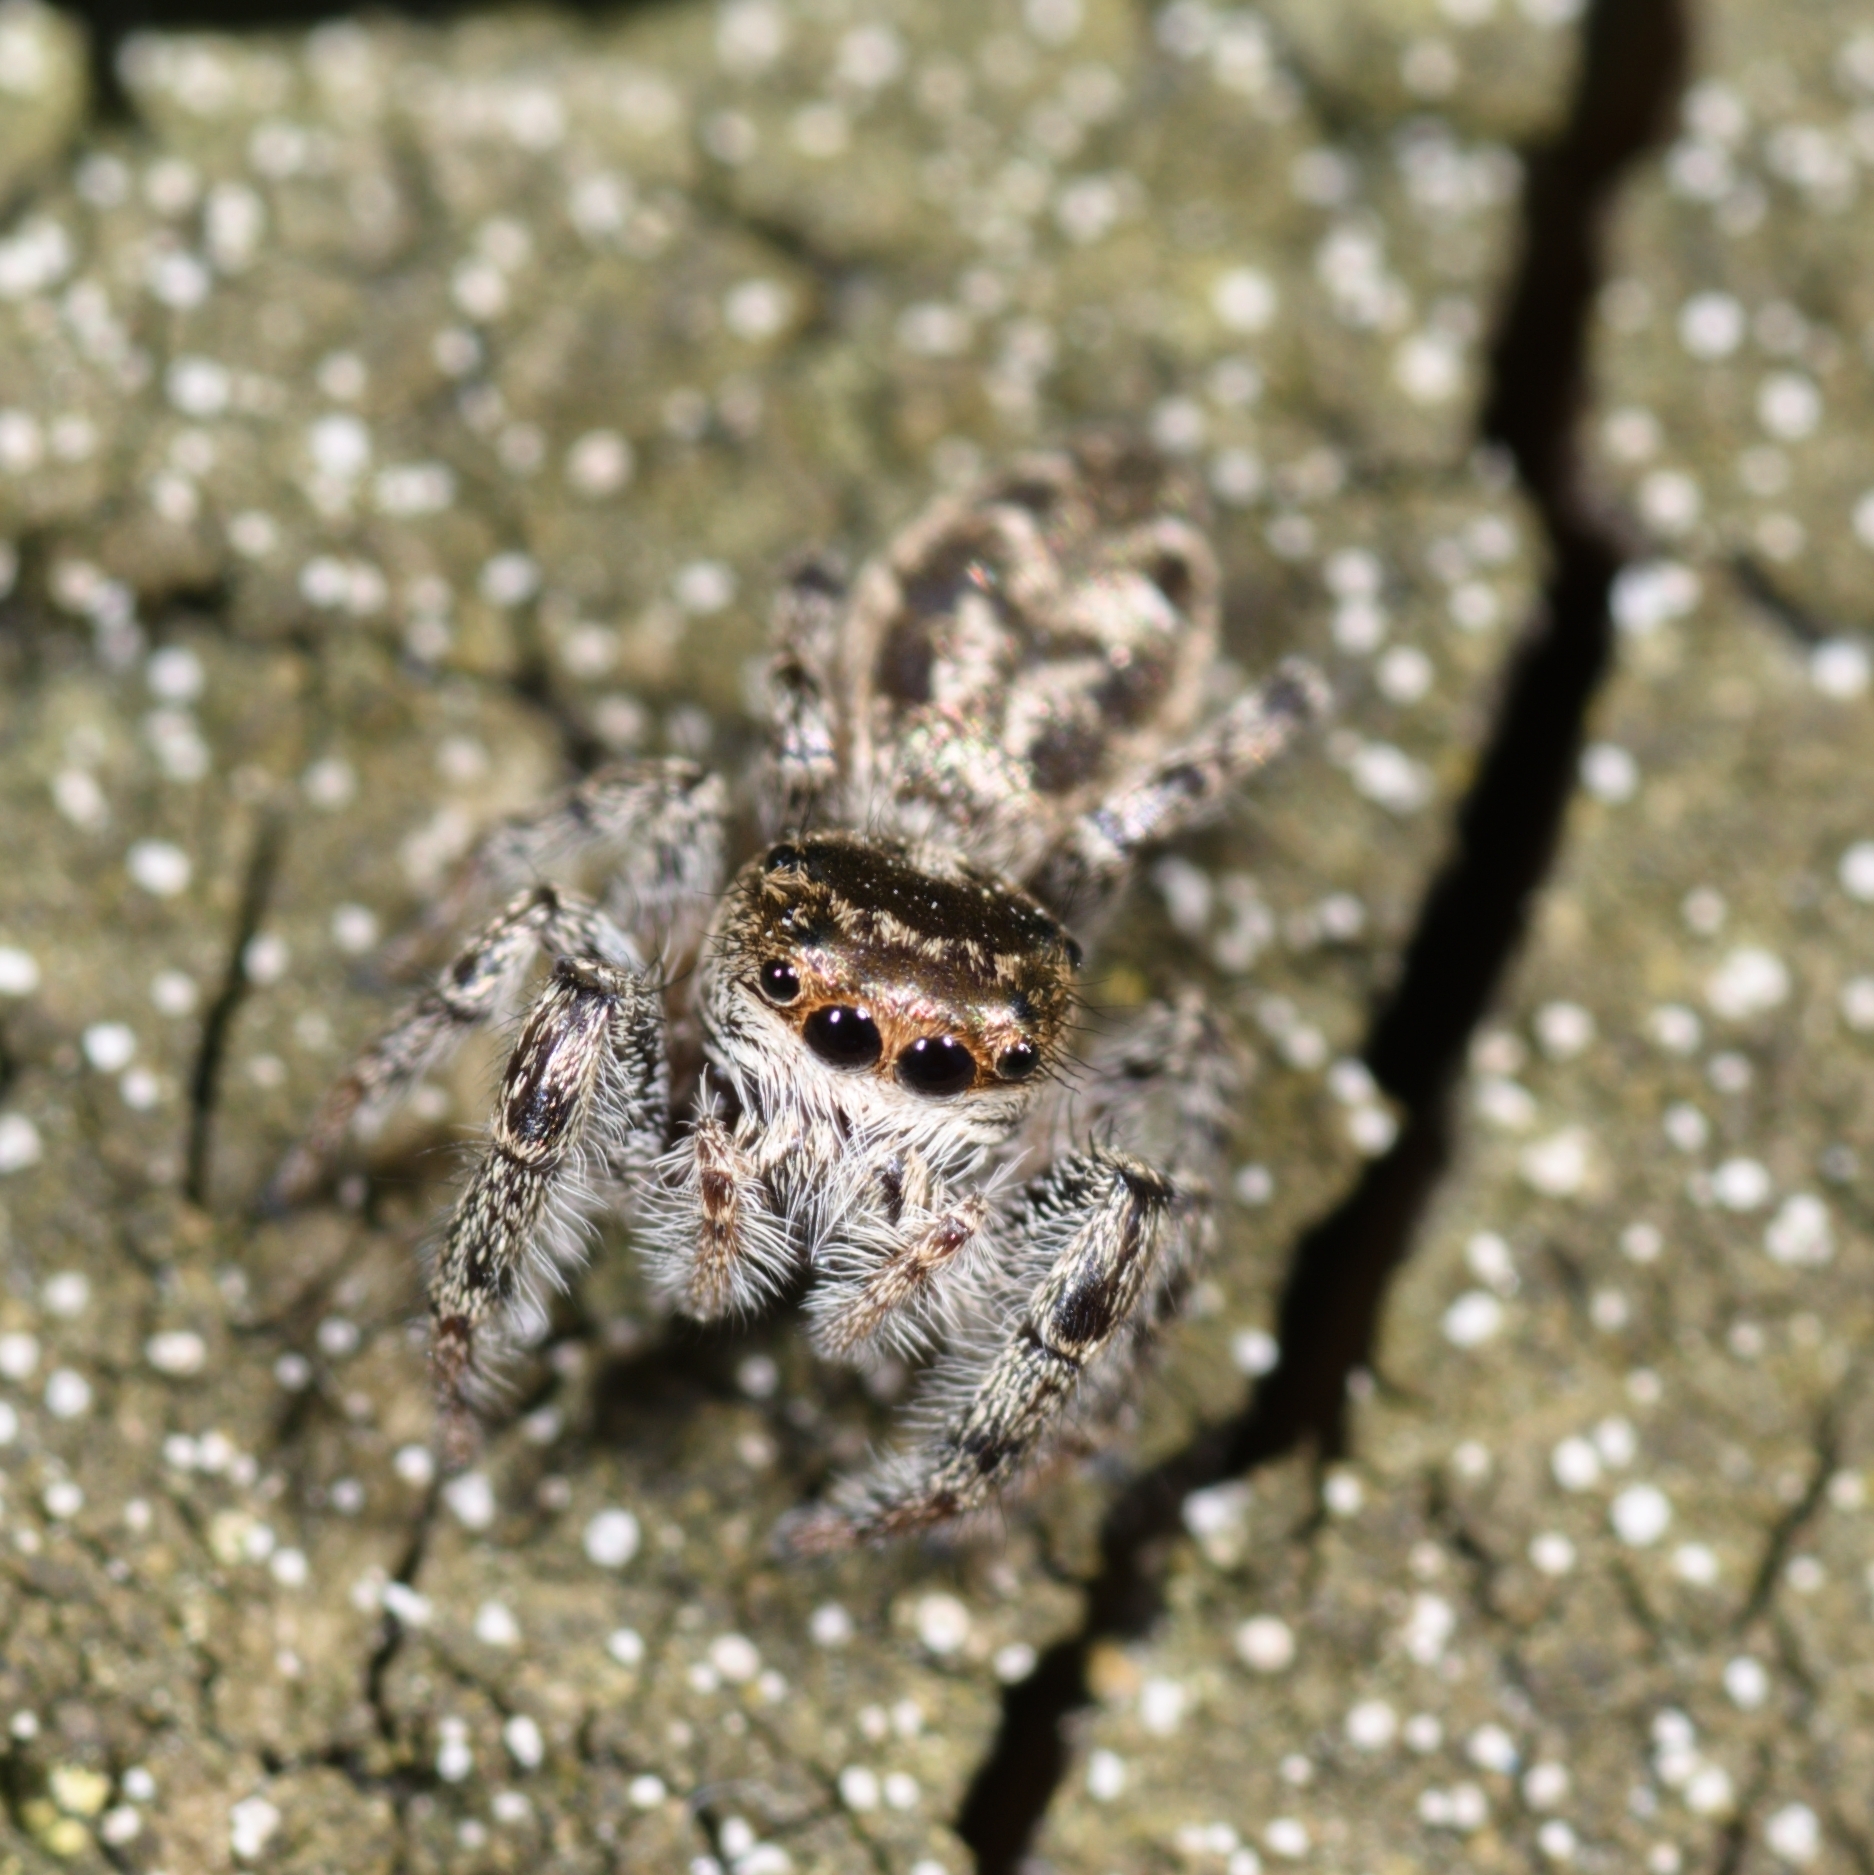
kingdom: Animalia
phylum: Arthropoda
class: Arachnida
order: Araneae
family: Salticidae
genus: Eris
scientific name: Eris militaris
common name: Bronze jumper
